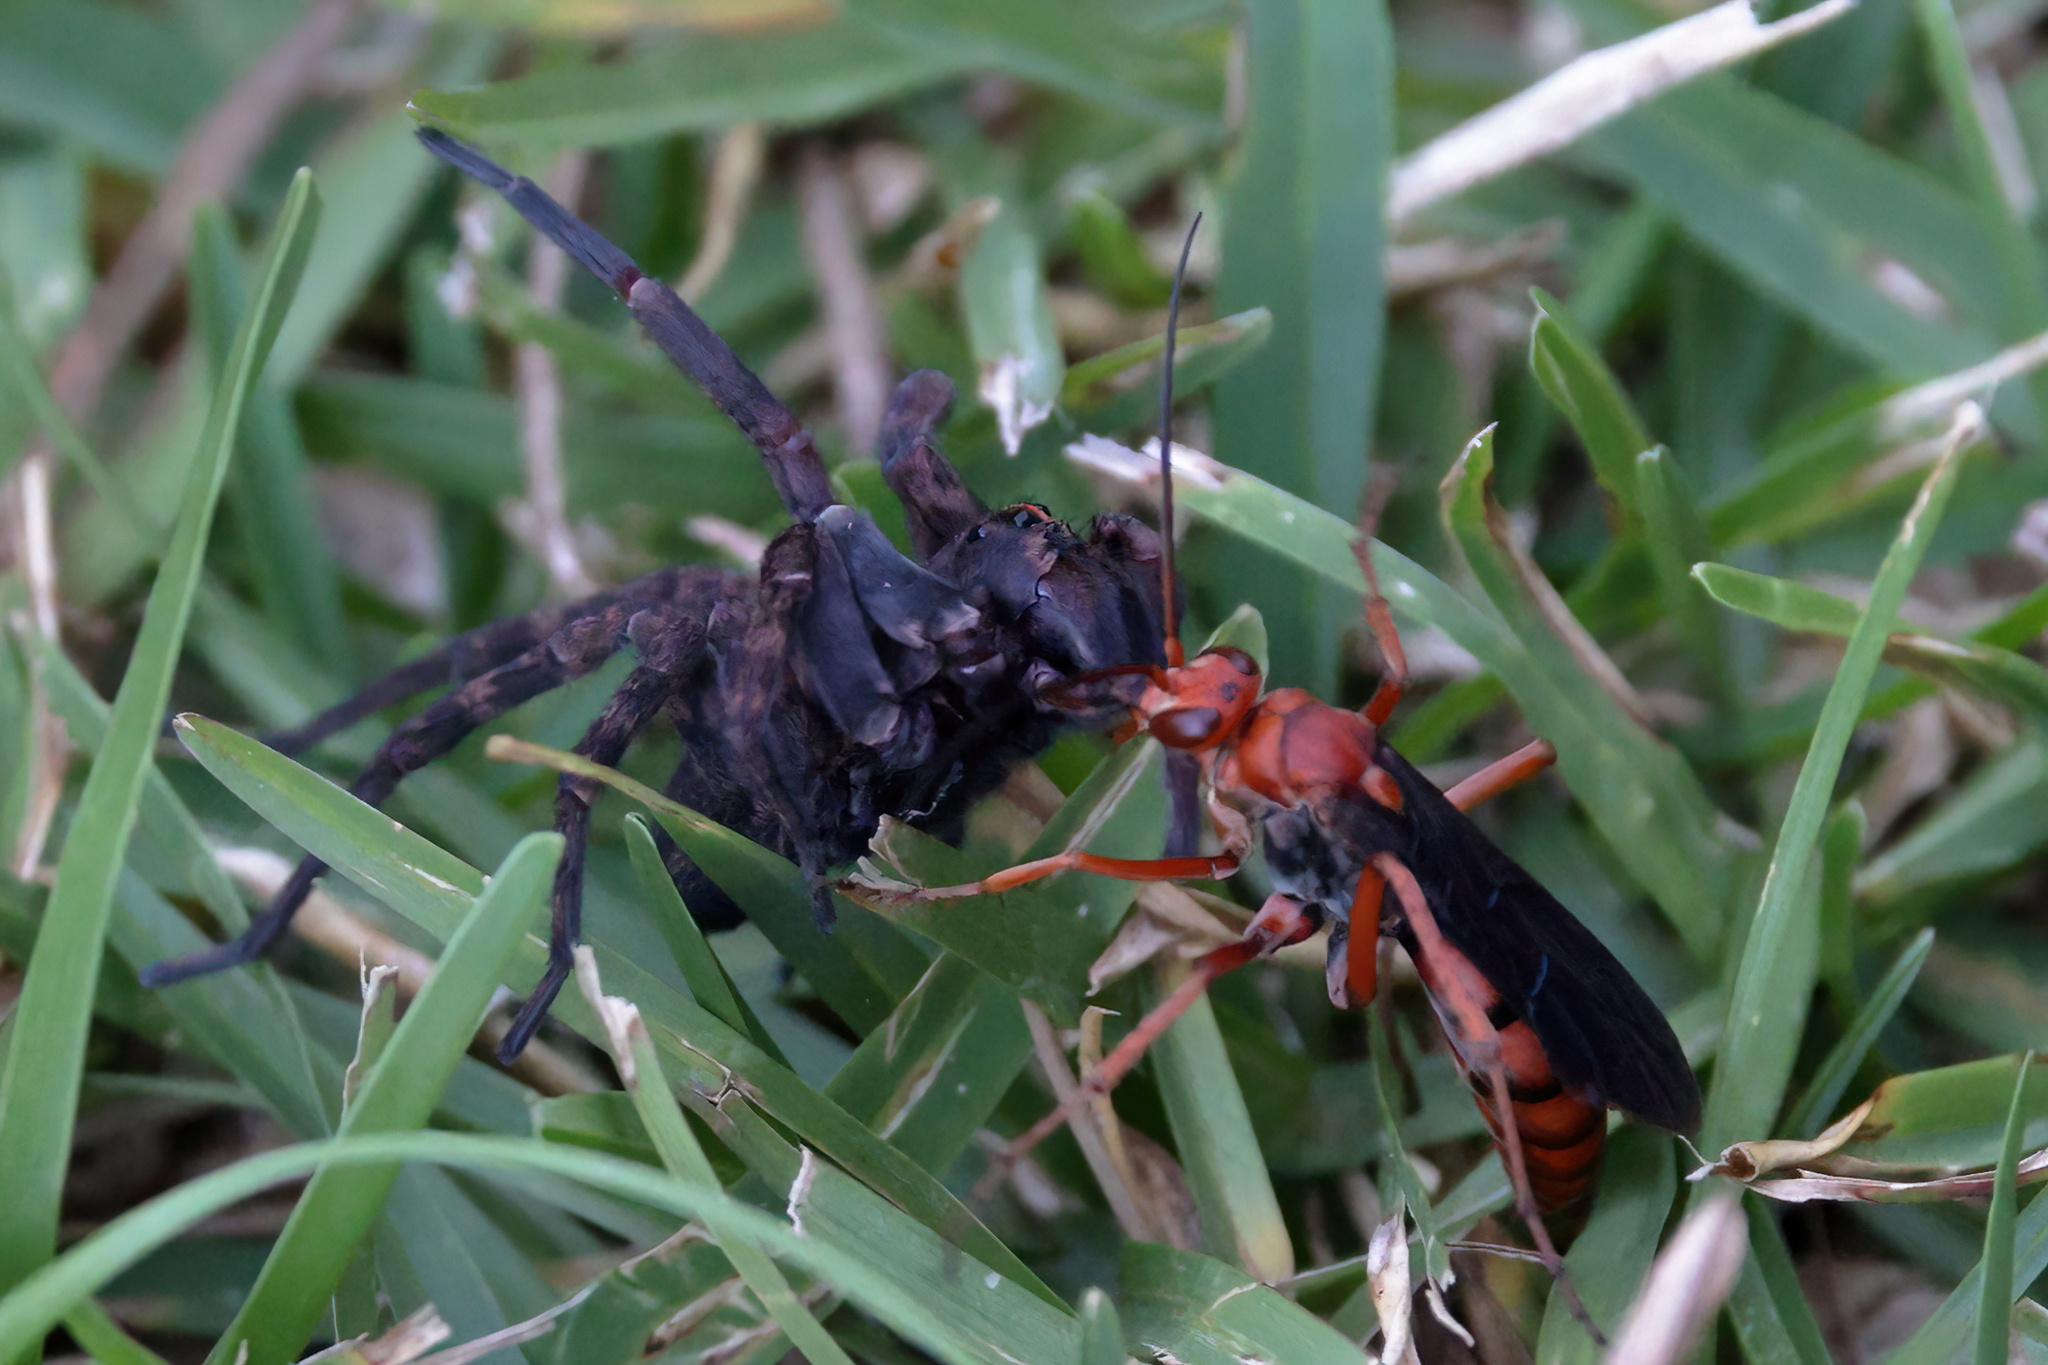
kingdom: Animalia
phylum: Arthropoda
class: Arachnida
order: Araneae
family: Lycosidae
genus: Tigrosa
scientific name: Tigrosa georgicola
